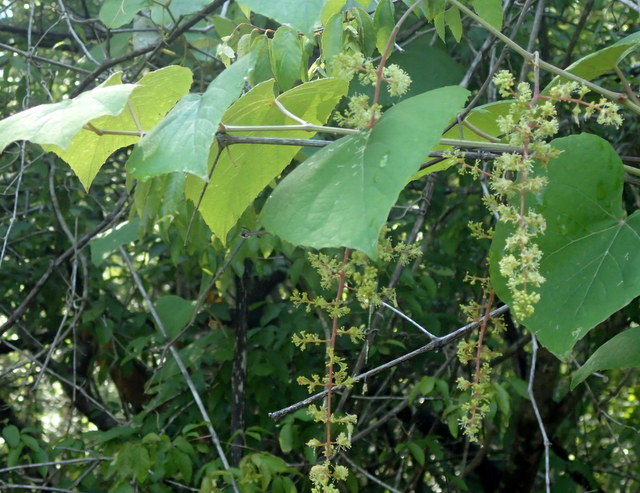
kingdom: Plantae
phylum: Tracheophyta
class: Magnoliopsida
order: Vitales
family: Vitaceae
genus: Vitis
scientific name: Vitis cinerea
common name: Ashy grape
